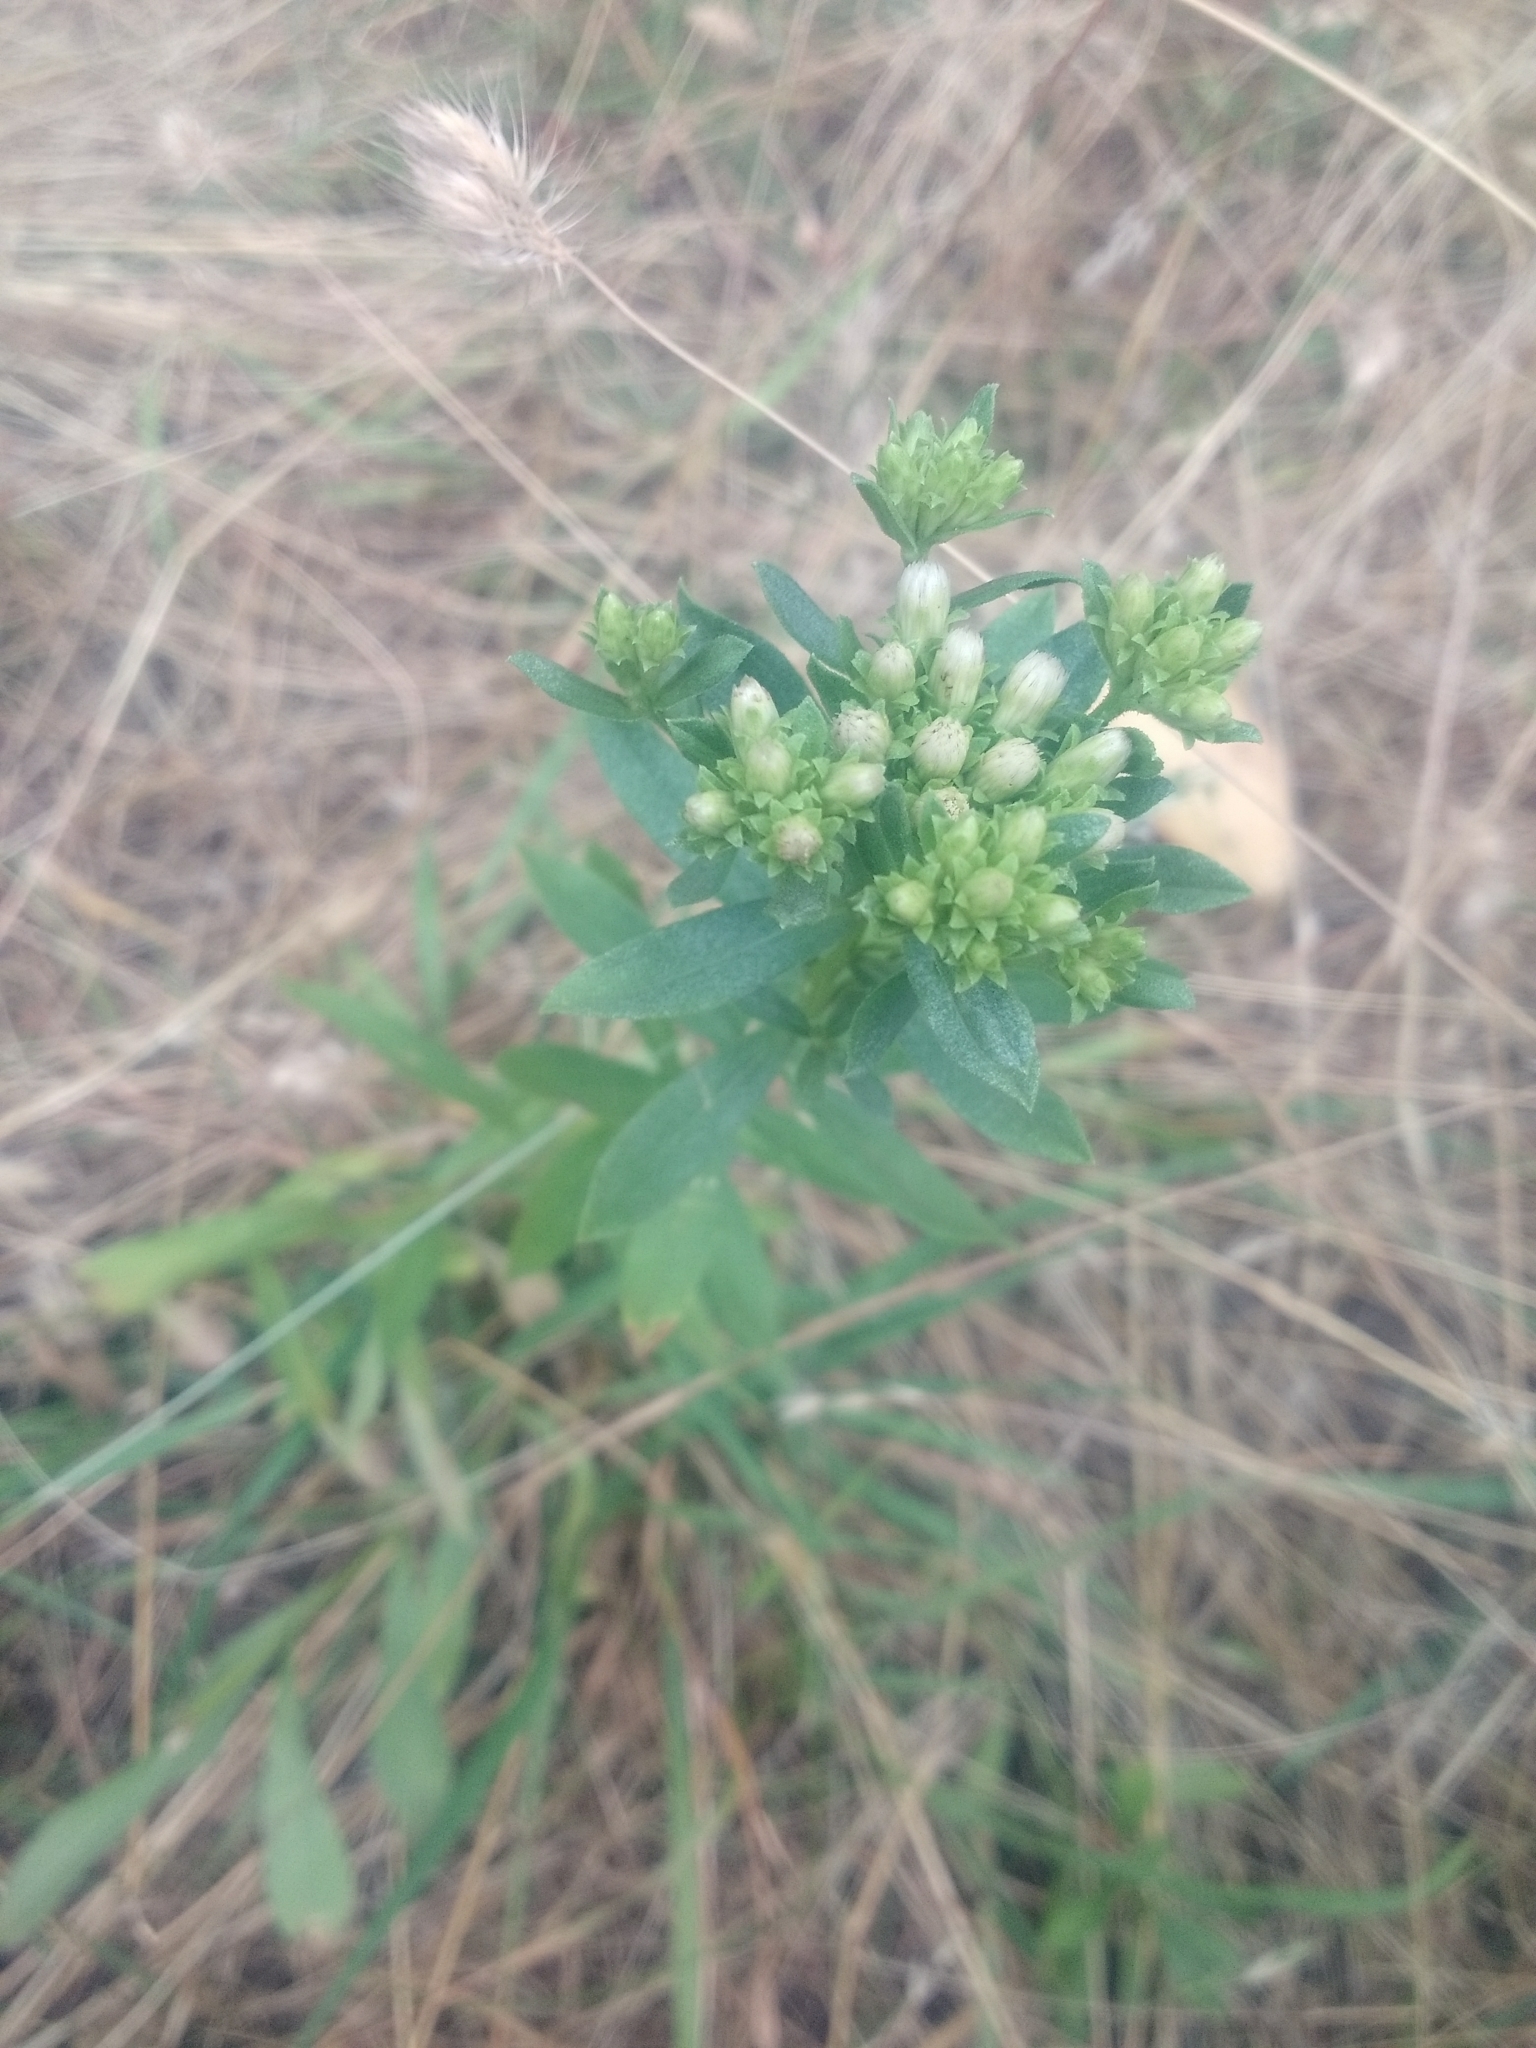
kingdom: Plantae
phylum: Tracheophyta
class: Magnoliopsida
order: Asterales
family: Asteraceae
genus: Sericocarpus
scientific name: Sericocarpus rigidus
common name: Columbia white-top aster
